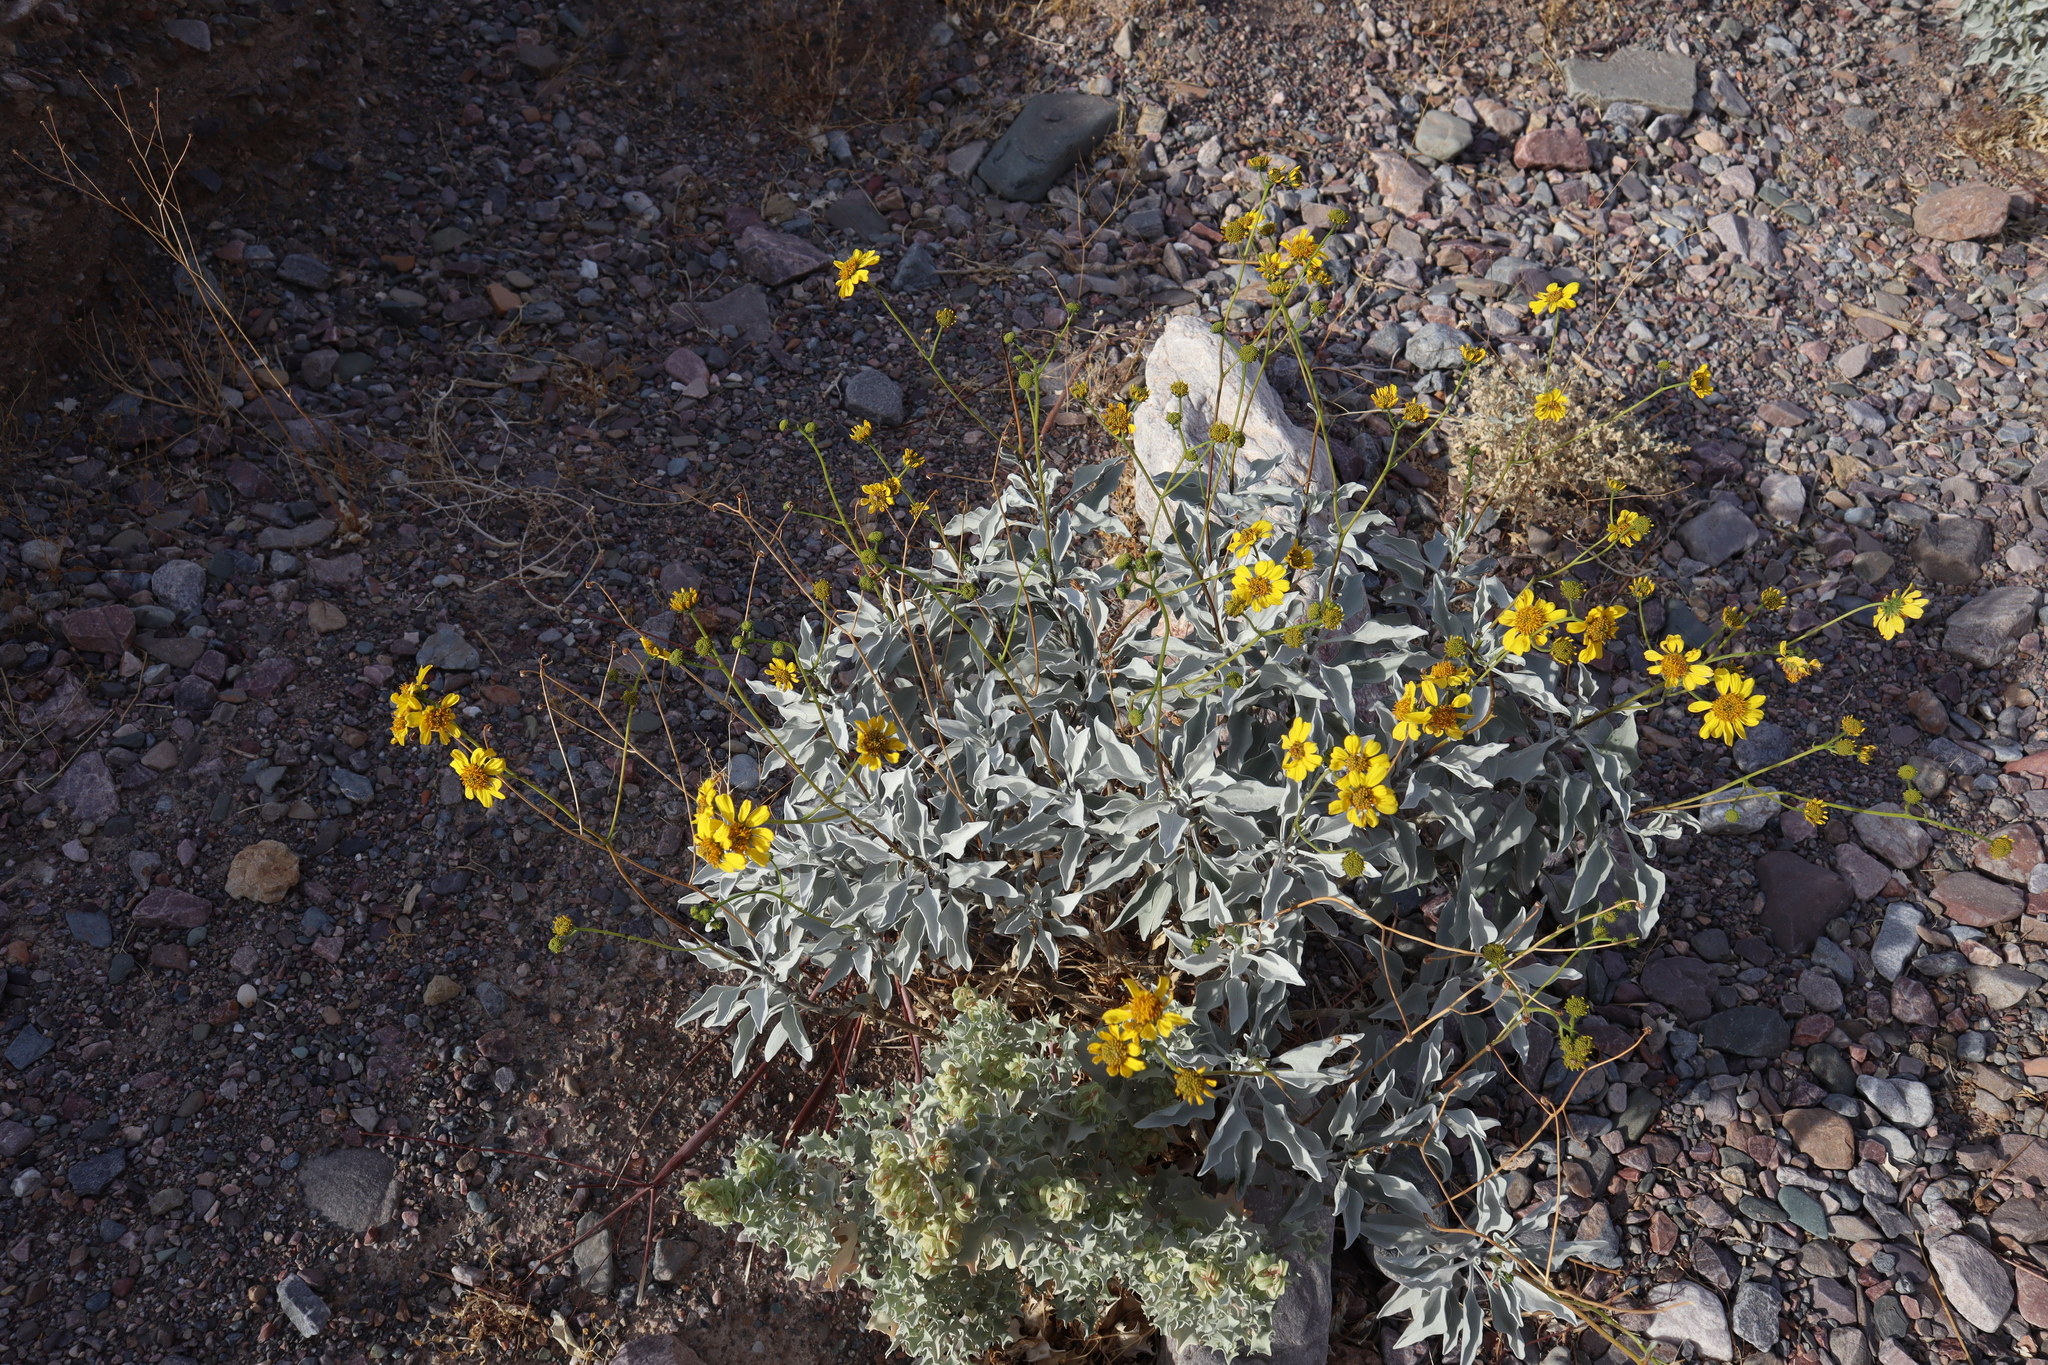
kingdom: Plantae
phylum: Tracheophyta
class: Magnoliopsida
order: Asterales
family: Asteraceae
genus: Encelia
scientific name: Encelia farinosa
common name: Brittlebush
